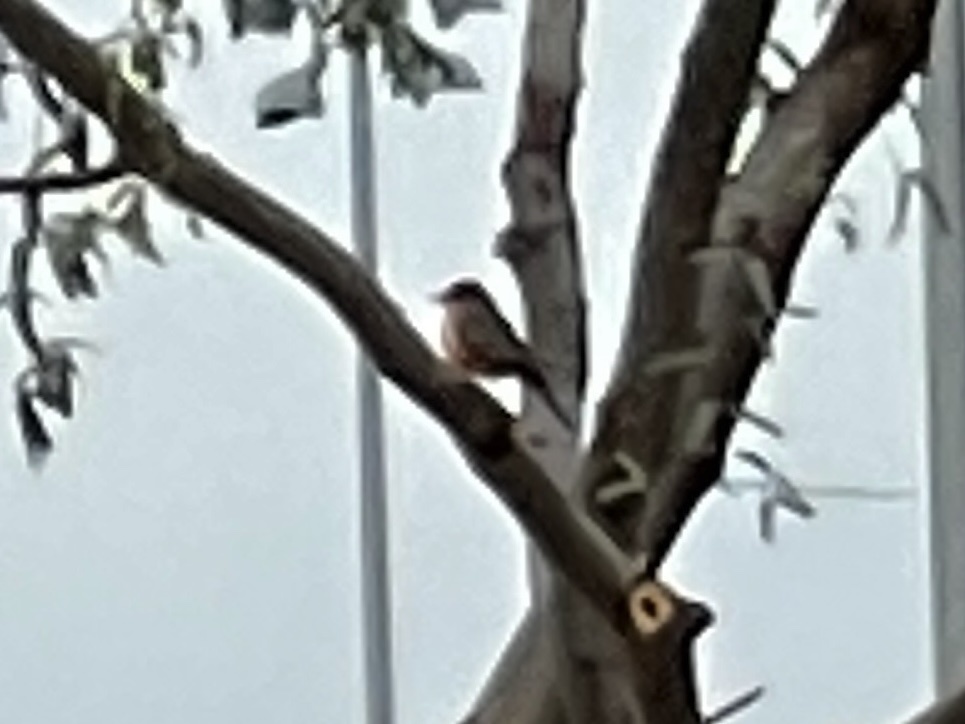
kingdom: Animalia
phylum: Chordata
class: Aves
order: Passeriformes
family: Tyrannidae
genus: Pyrocephalus
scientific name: Pyrocephalus rubinus
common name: Vermilion flycatcher
